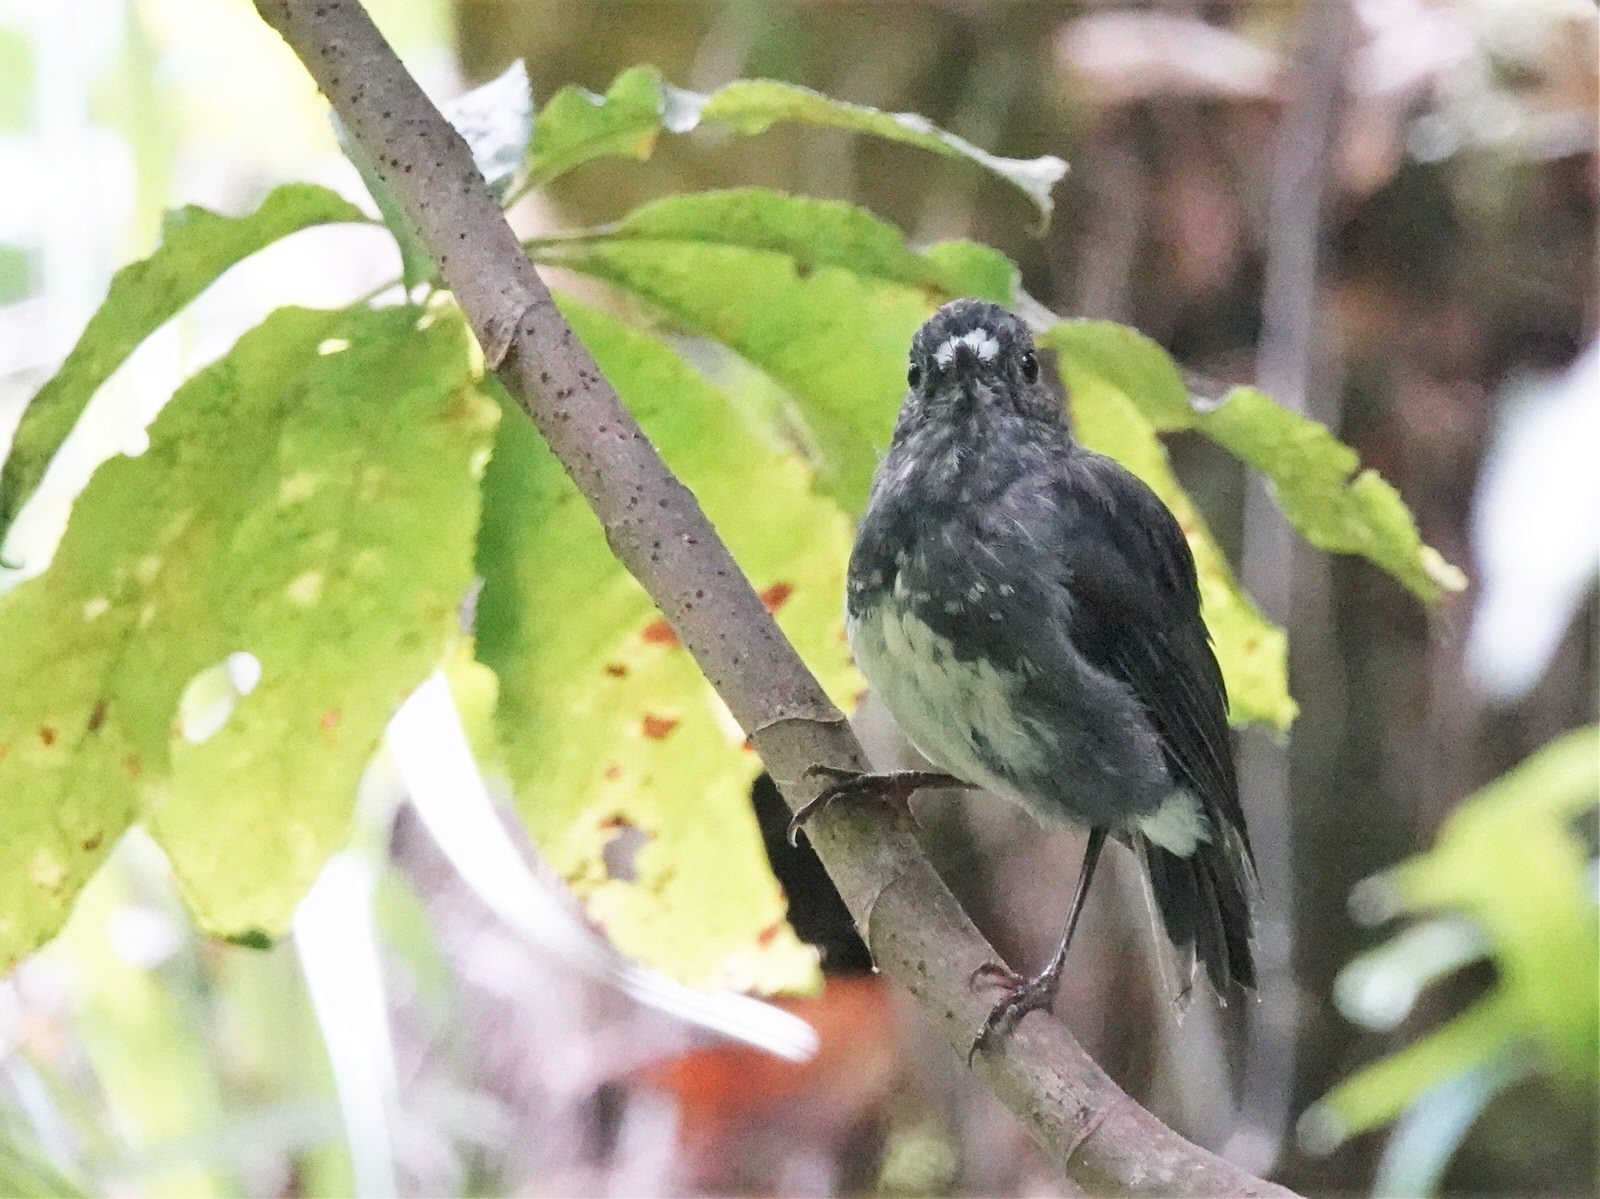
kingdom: Animalia
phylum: Chordata
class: Aves
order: Passeriformes
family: Petroicidae
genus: Petroica
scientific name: Petroica australis
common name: New zealand robin
